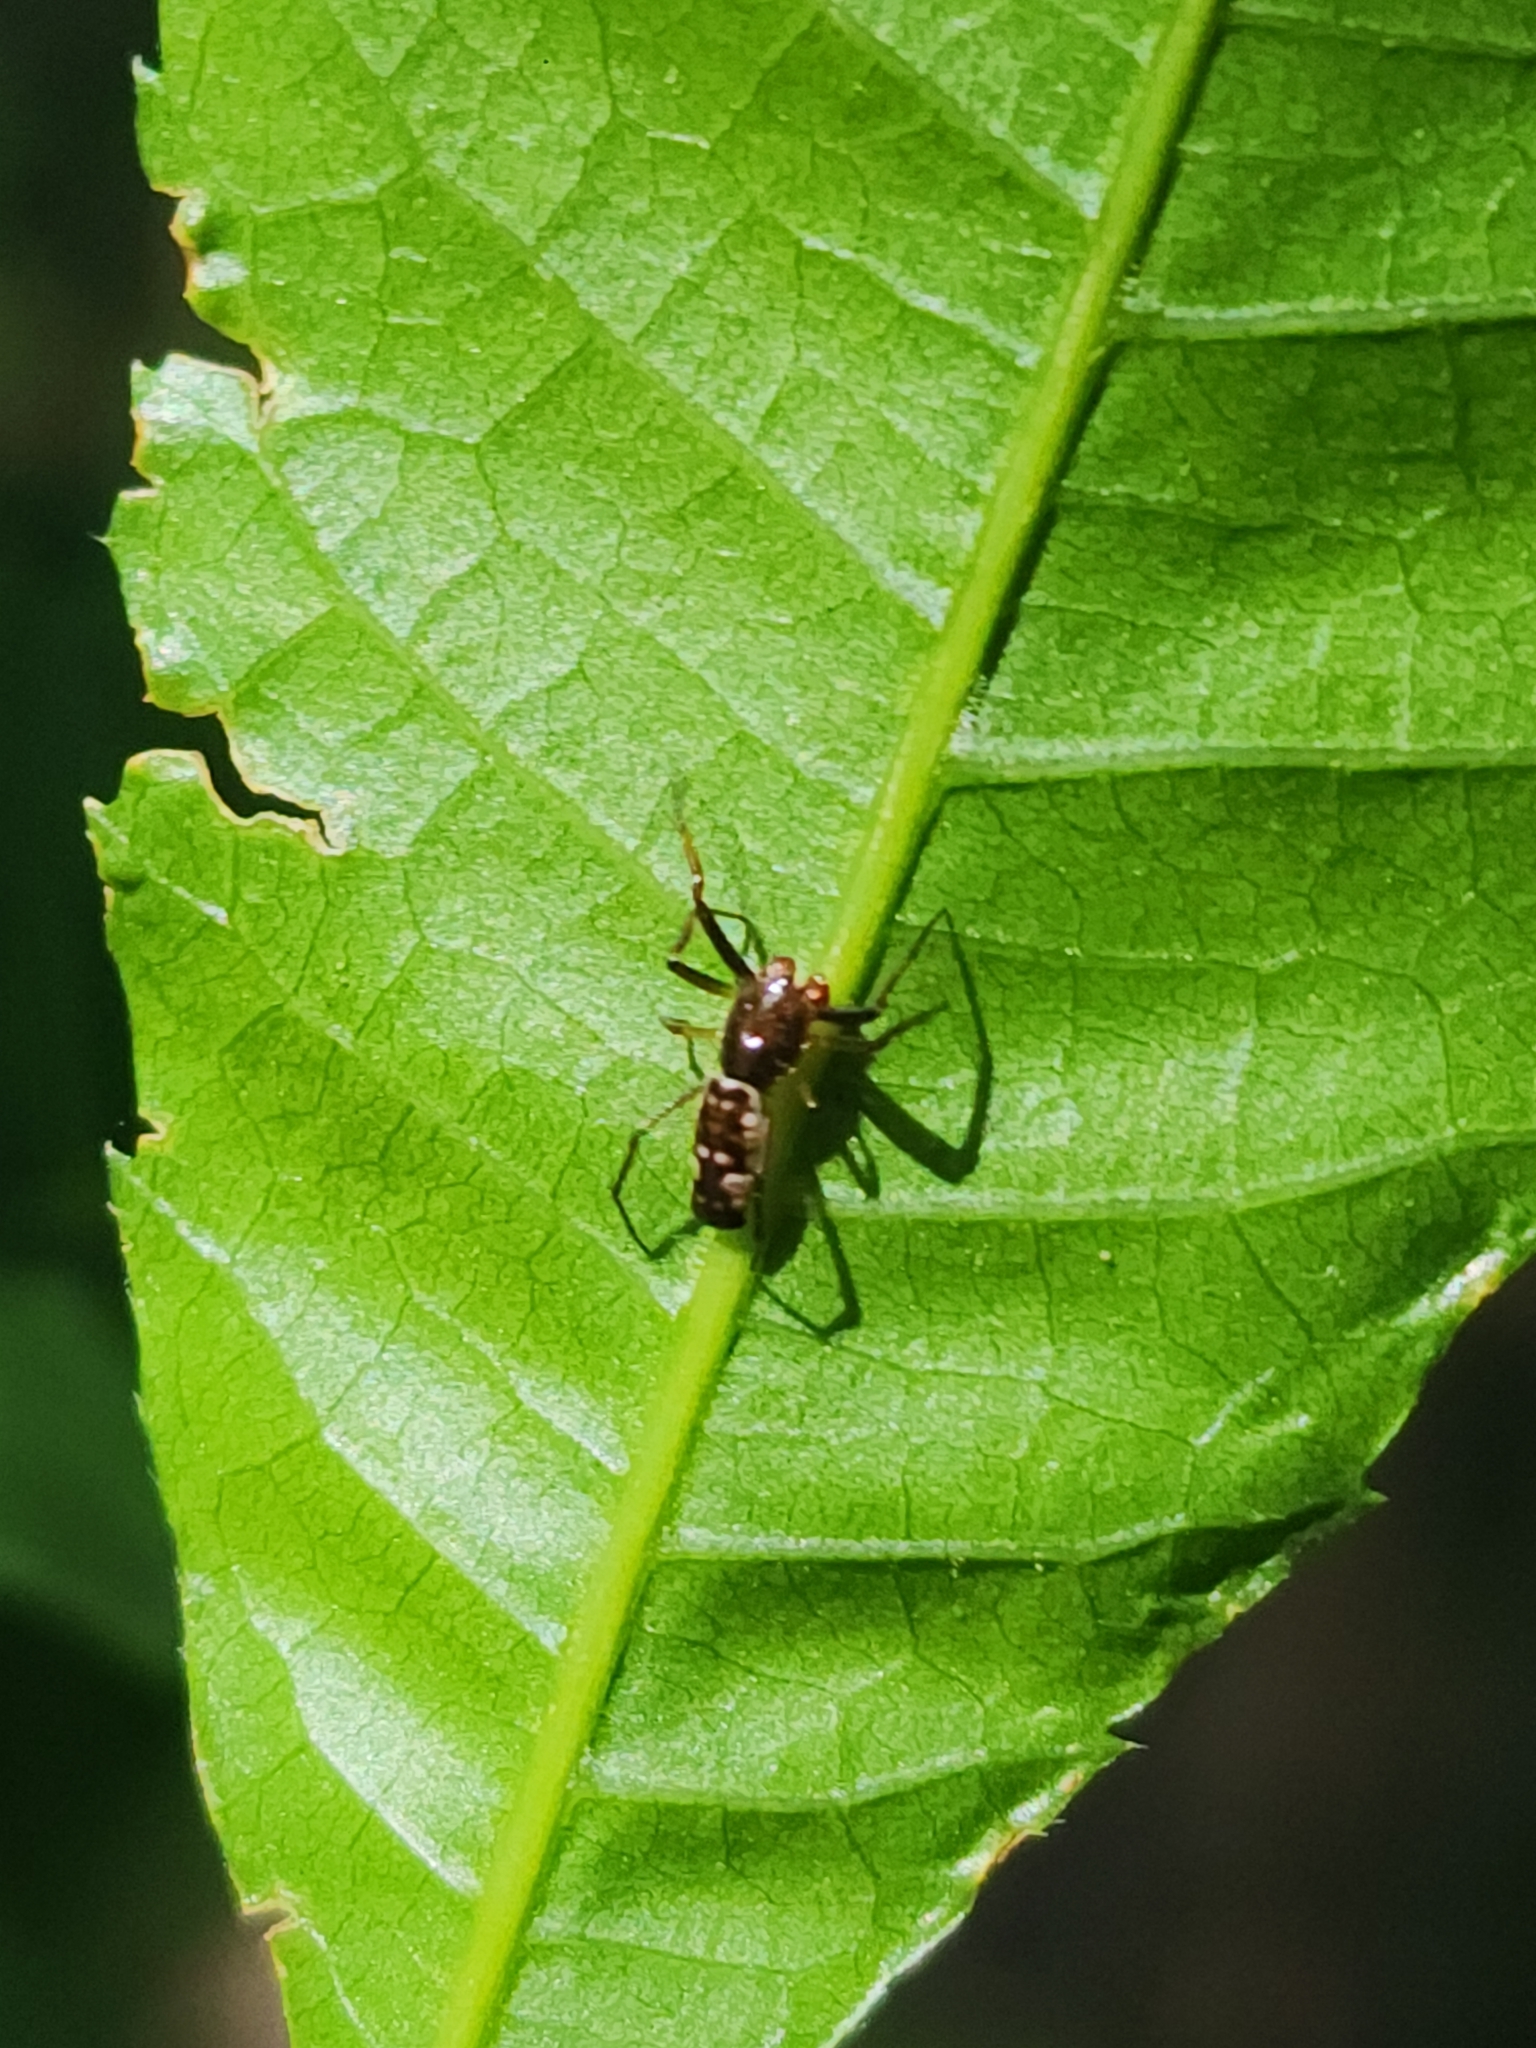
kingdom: Animalia
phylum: Arthropoda
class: Arachnida
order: Araneae
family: Araneidae
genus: Micrathena
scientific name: Micrathena furva
